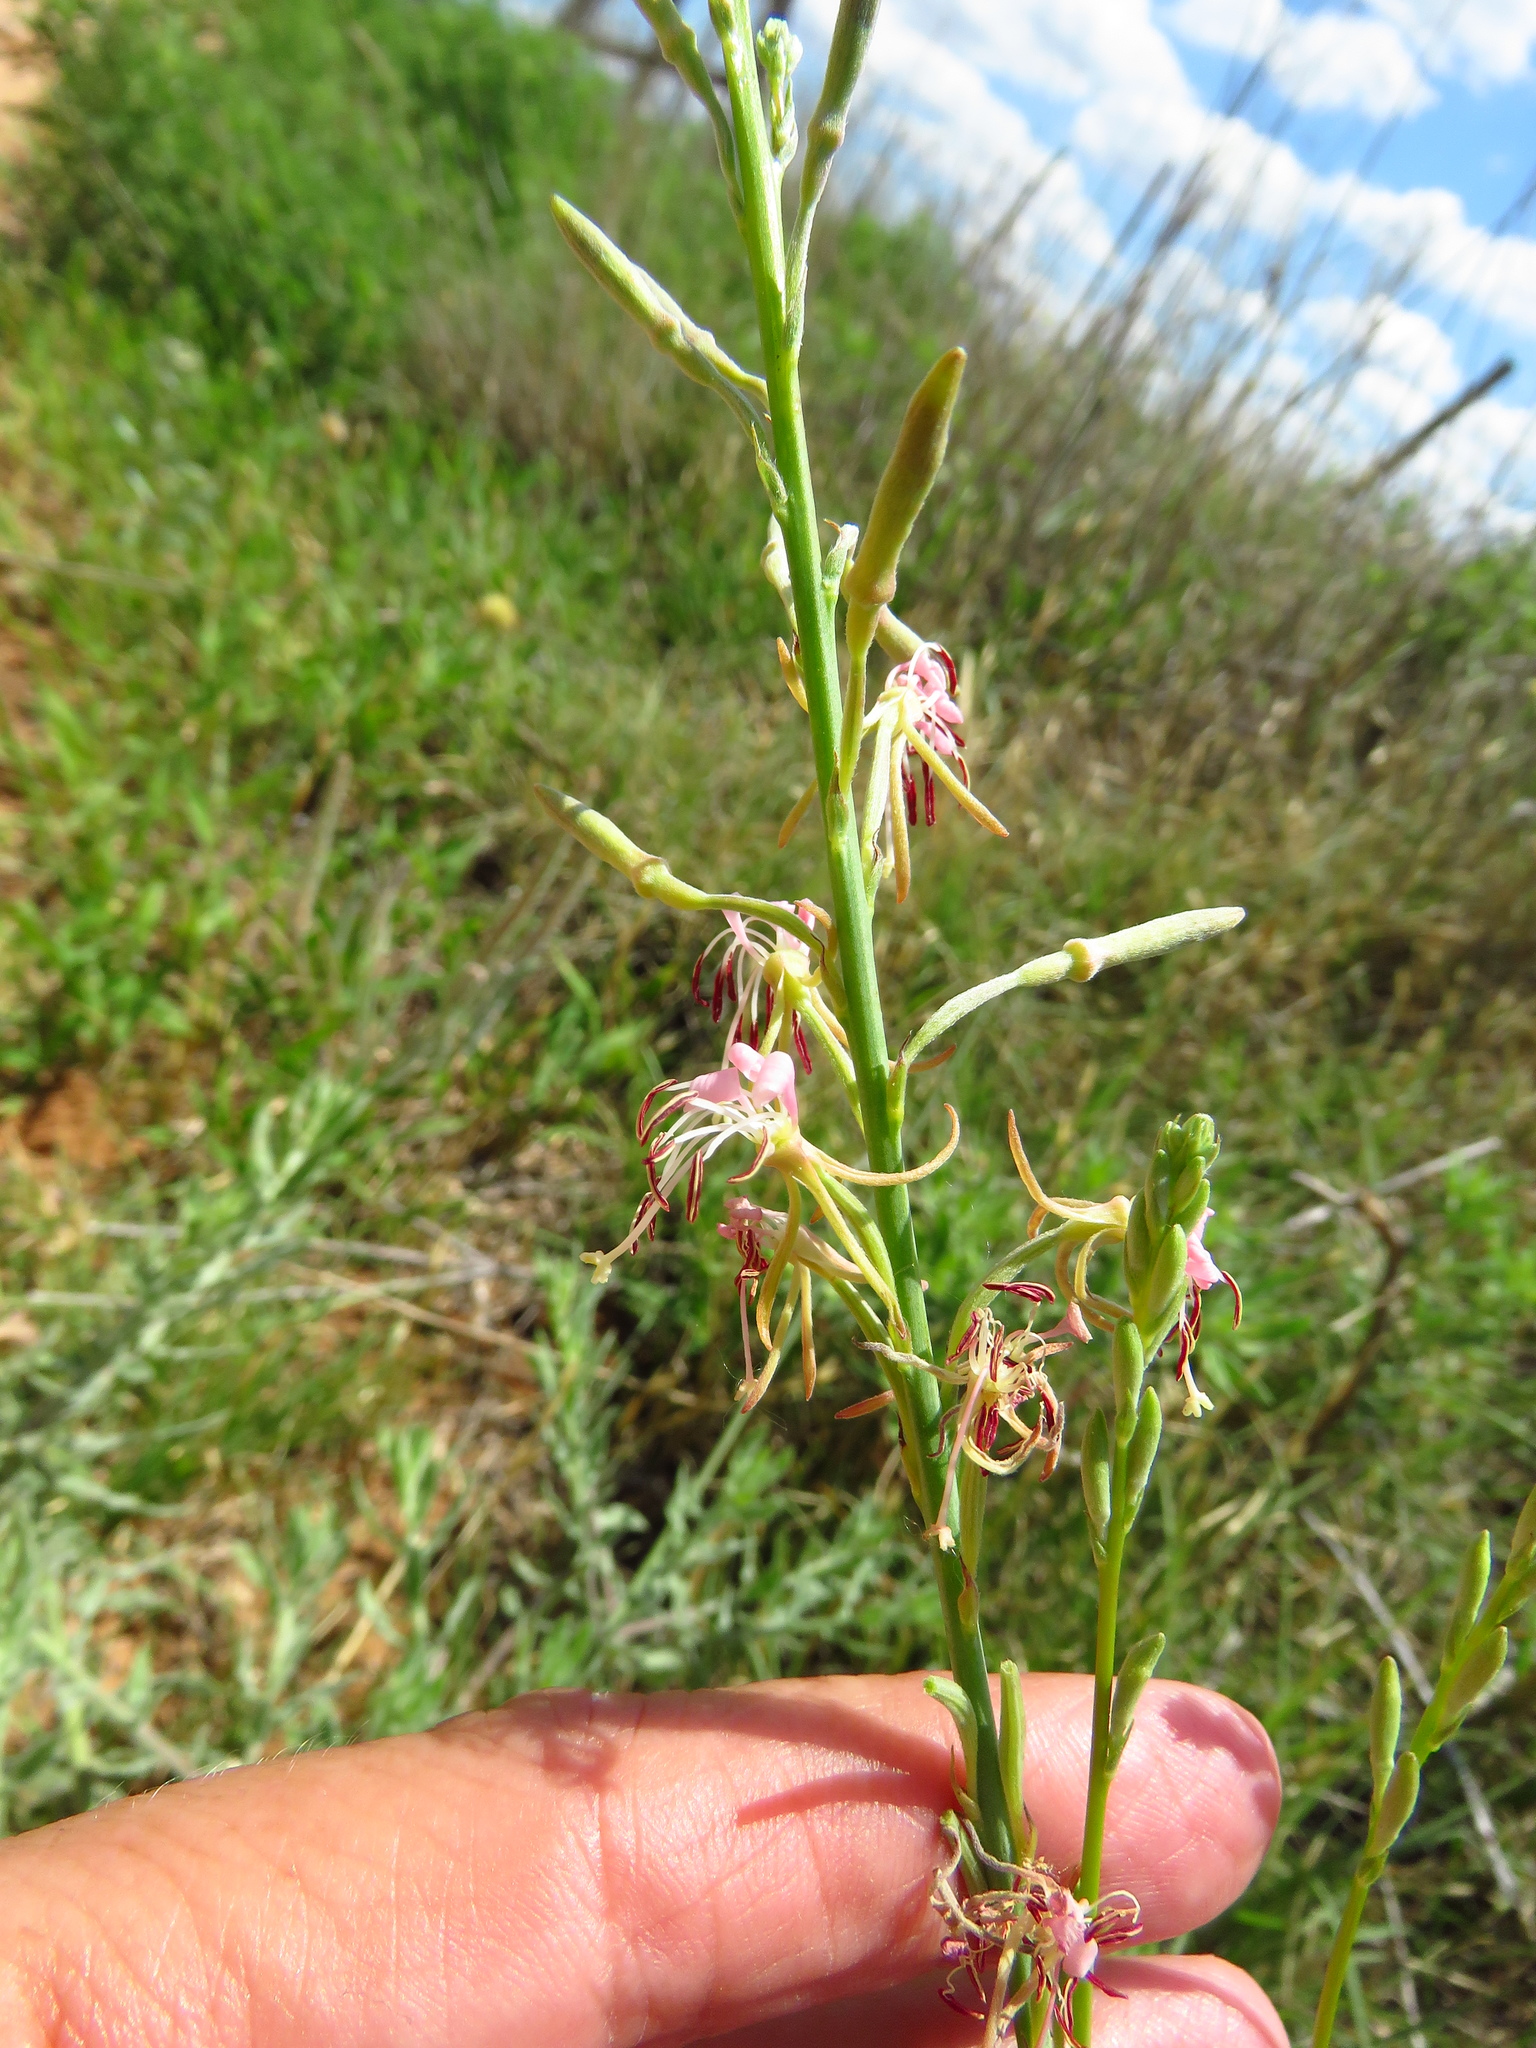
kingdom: Plantae
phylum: Tracheophyta
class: Magnoliopsida
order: Myrtales
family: Onagraceae
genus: Oenothera
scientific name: Oenothera cinerea
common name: Woolly beeblossom
